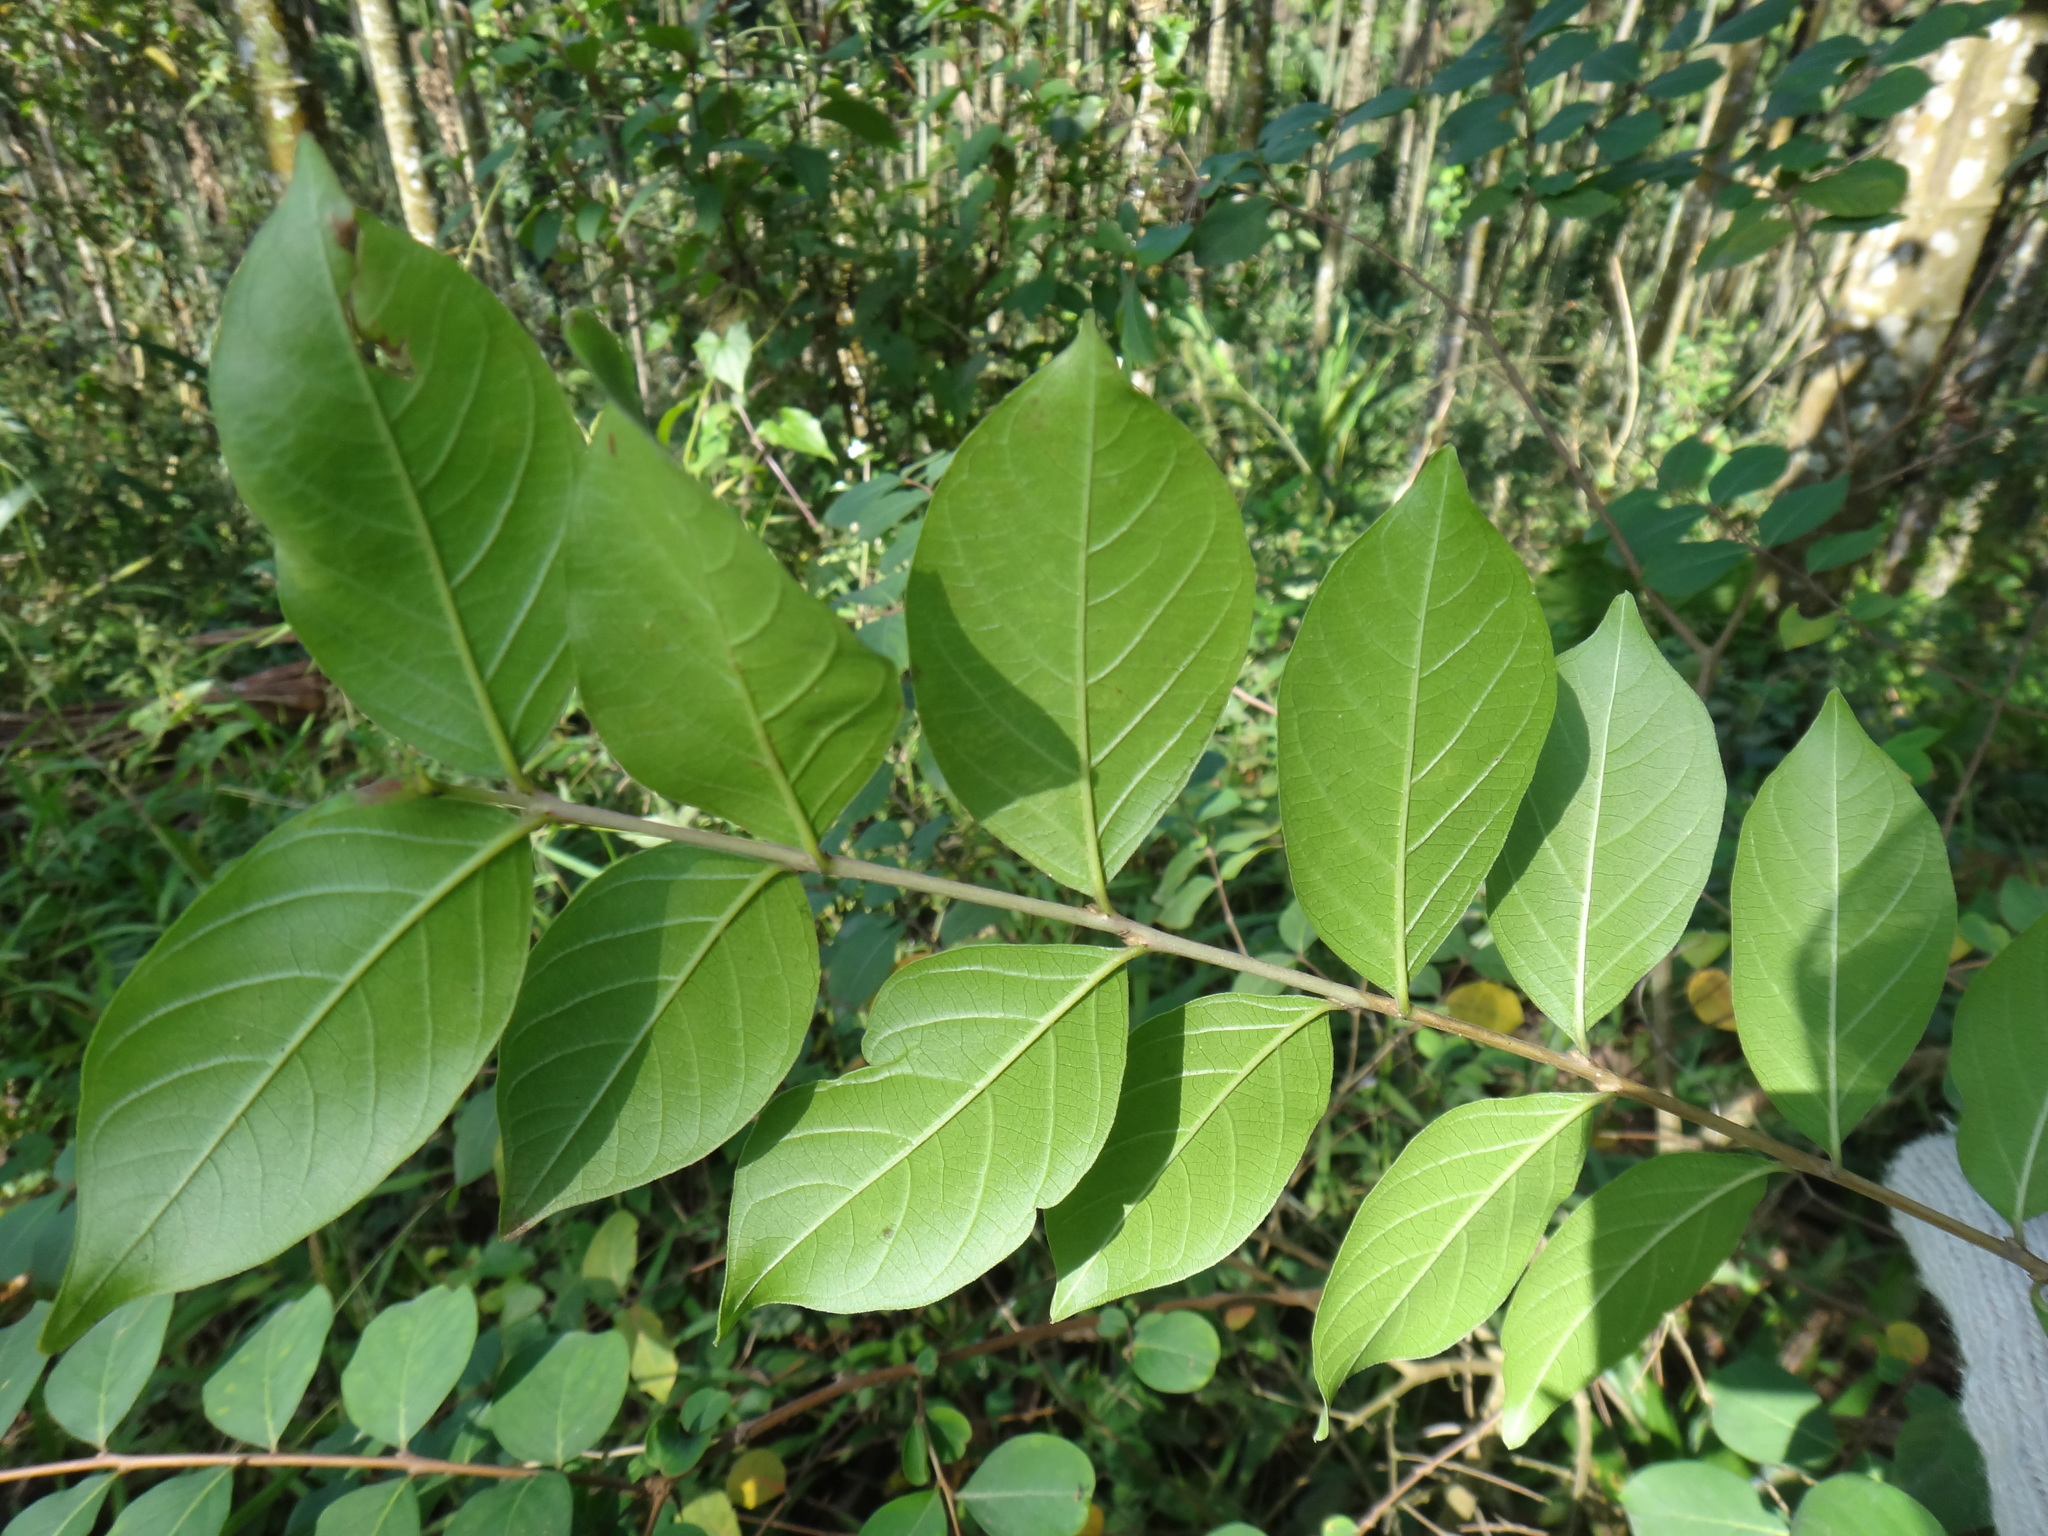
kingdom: Plantae
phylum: Tracheophyta
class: Magnoliopsida
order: Myrtales
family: Lythraceae
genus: Lagerstroemia
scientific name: Lagerstroemia subcostata
